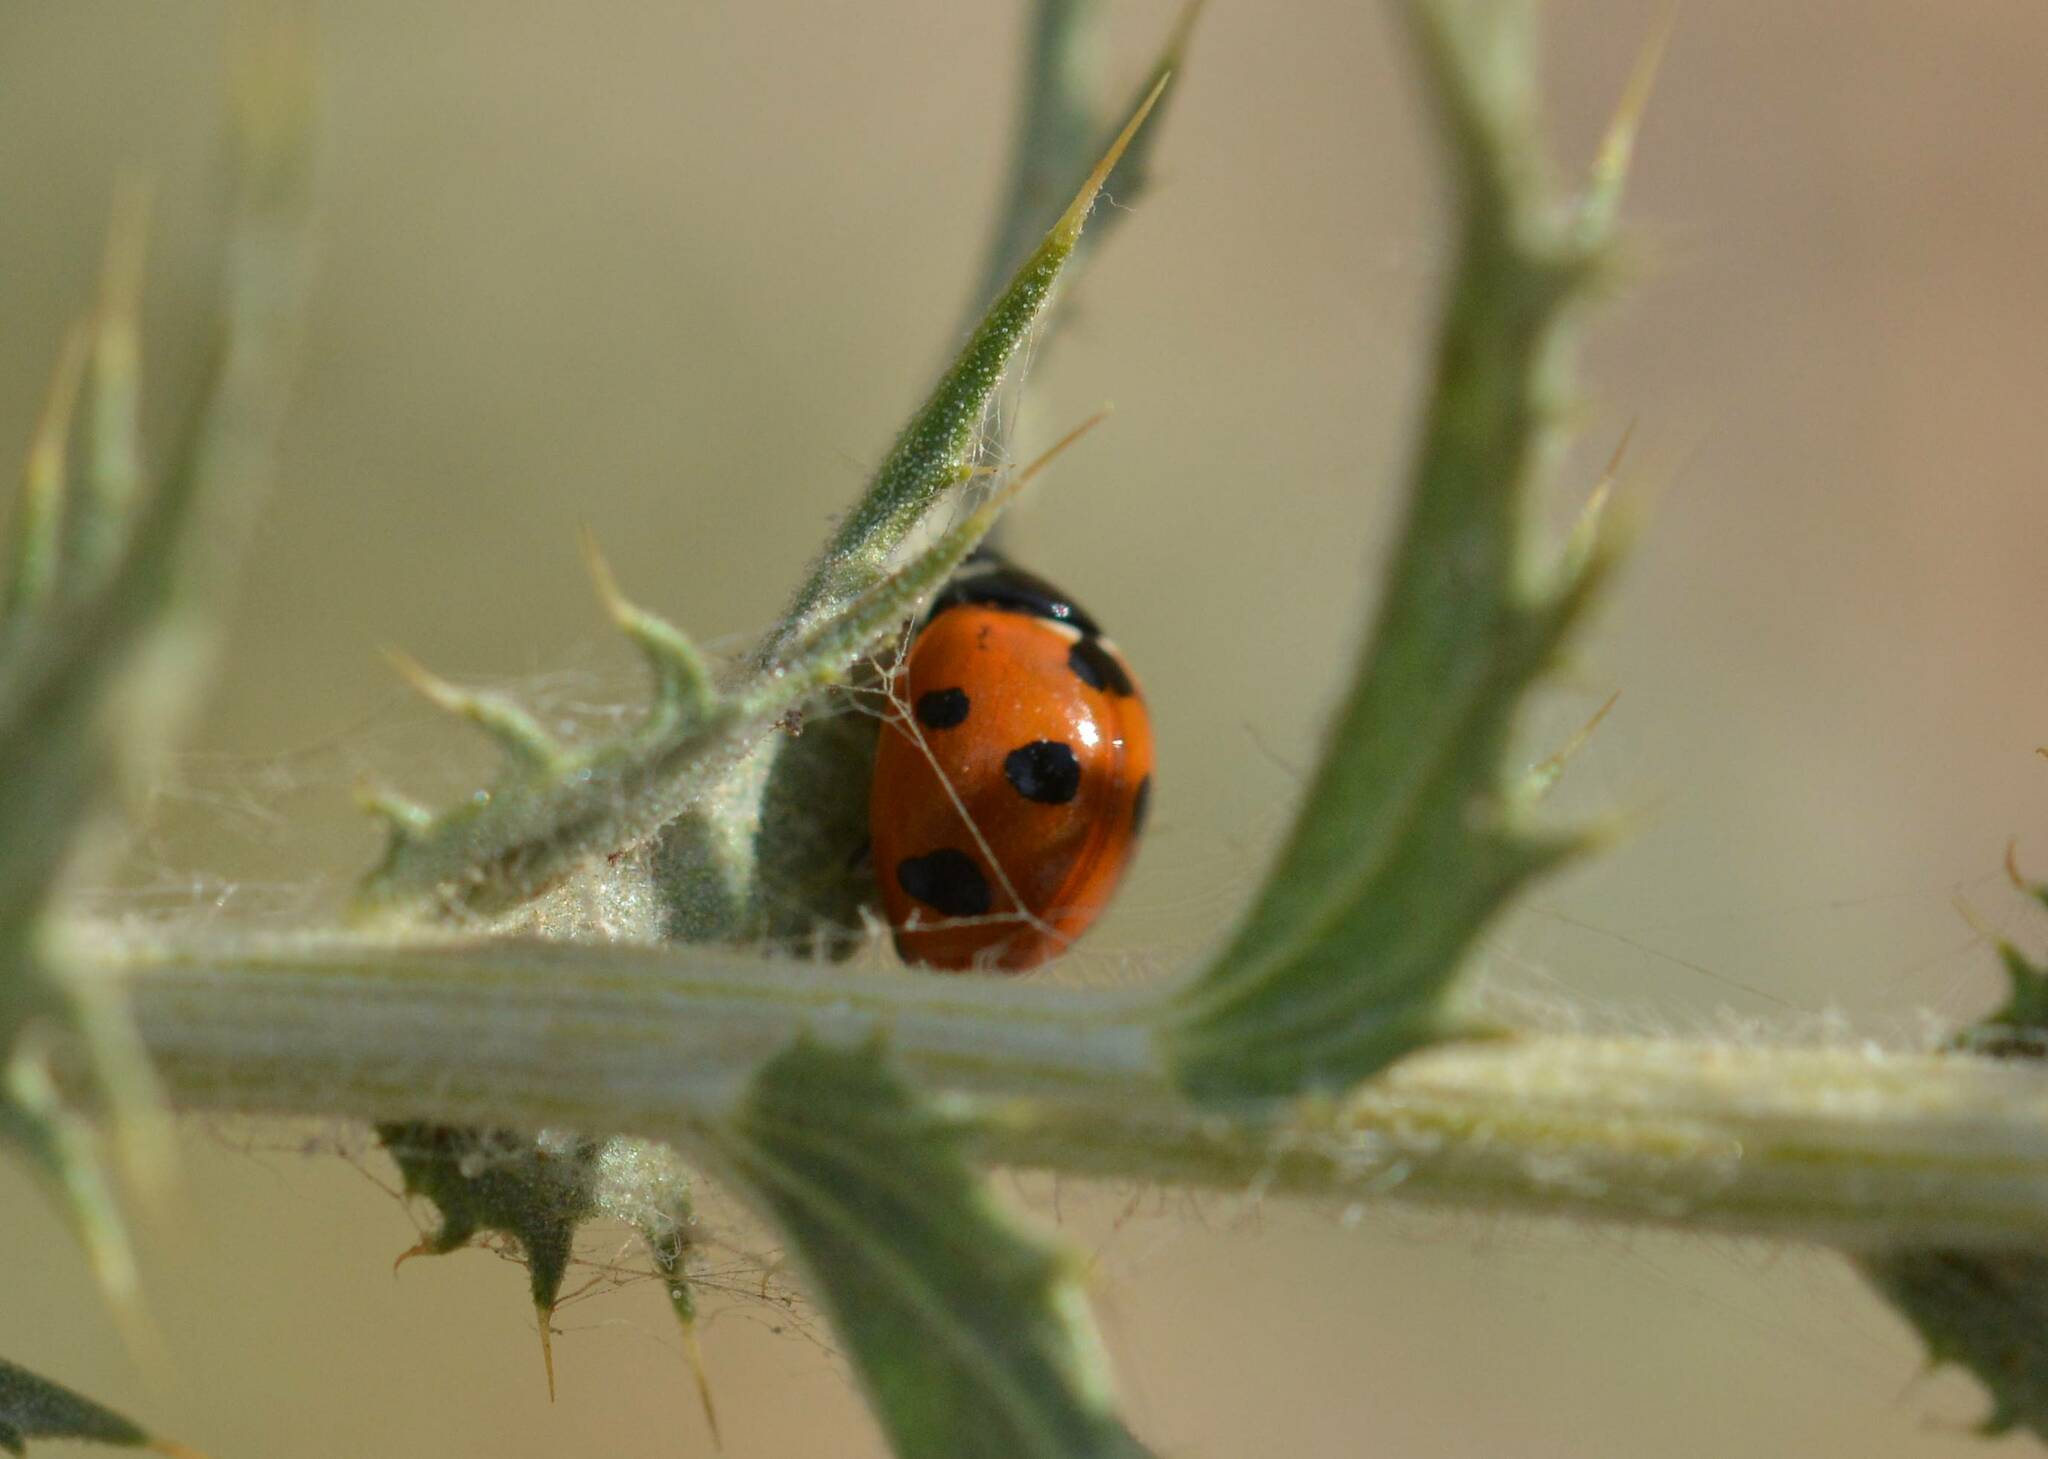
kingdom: Animalia
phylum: Arthropoda
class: Insecta
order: Coleoptera
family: Coccinellidae
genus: Coccinella
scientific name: Coccinella algerica
